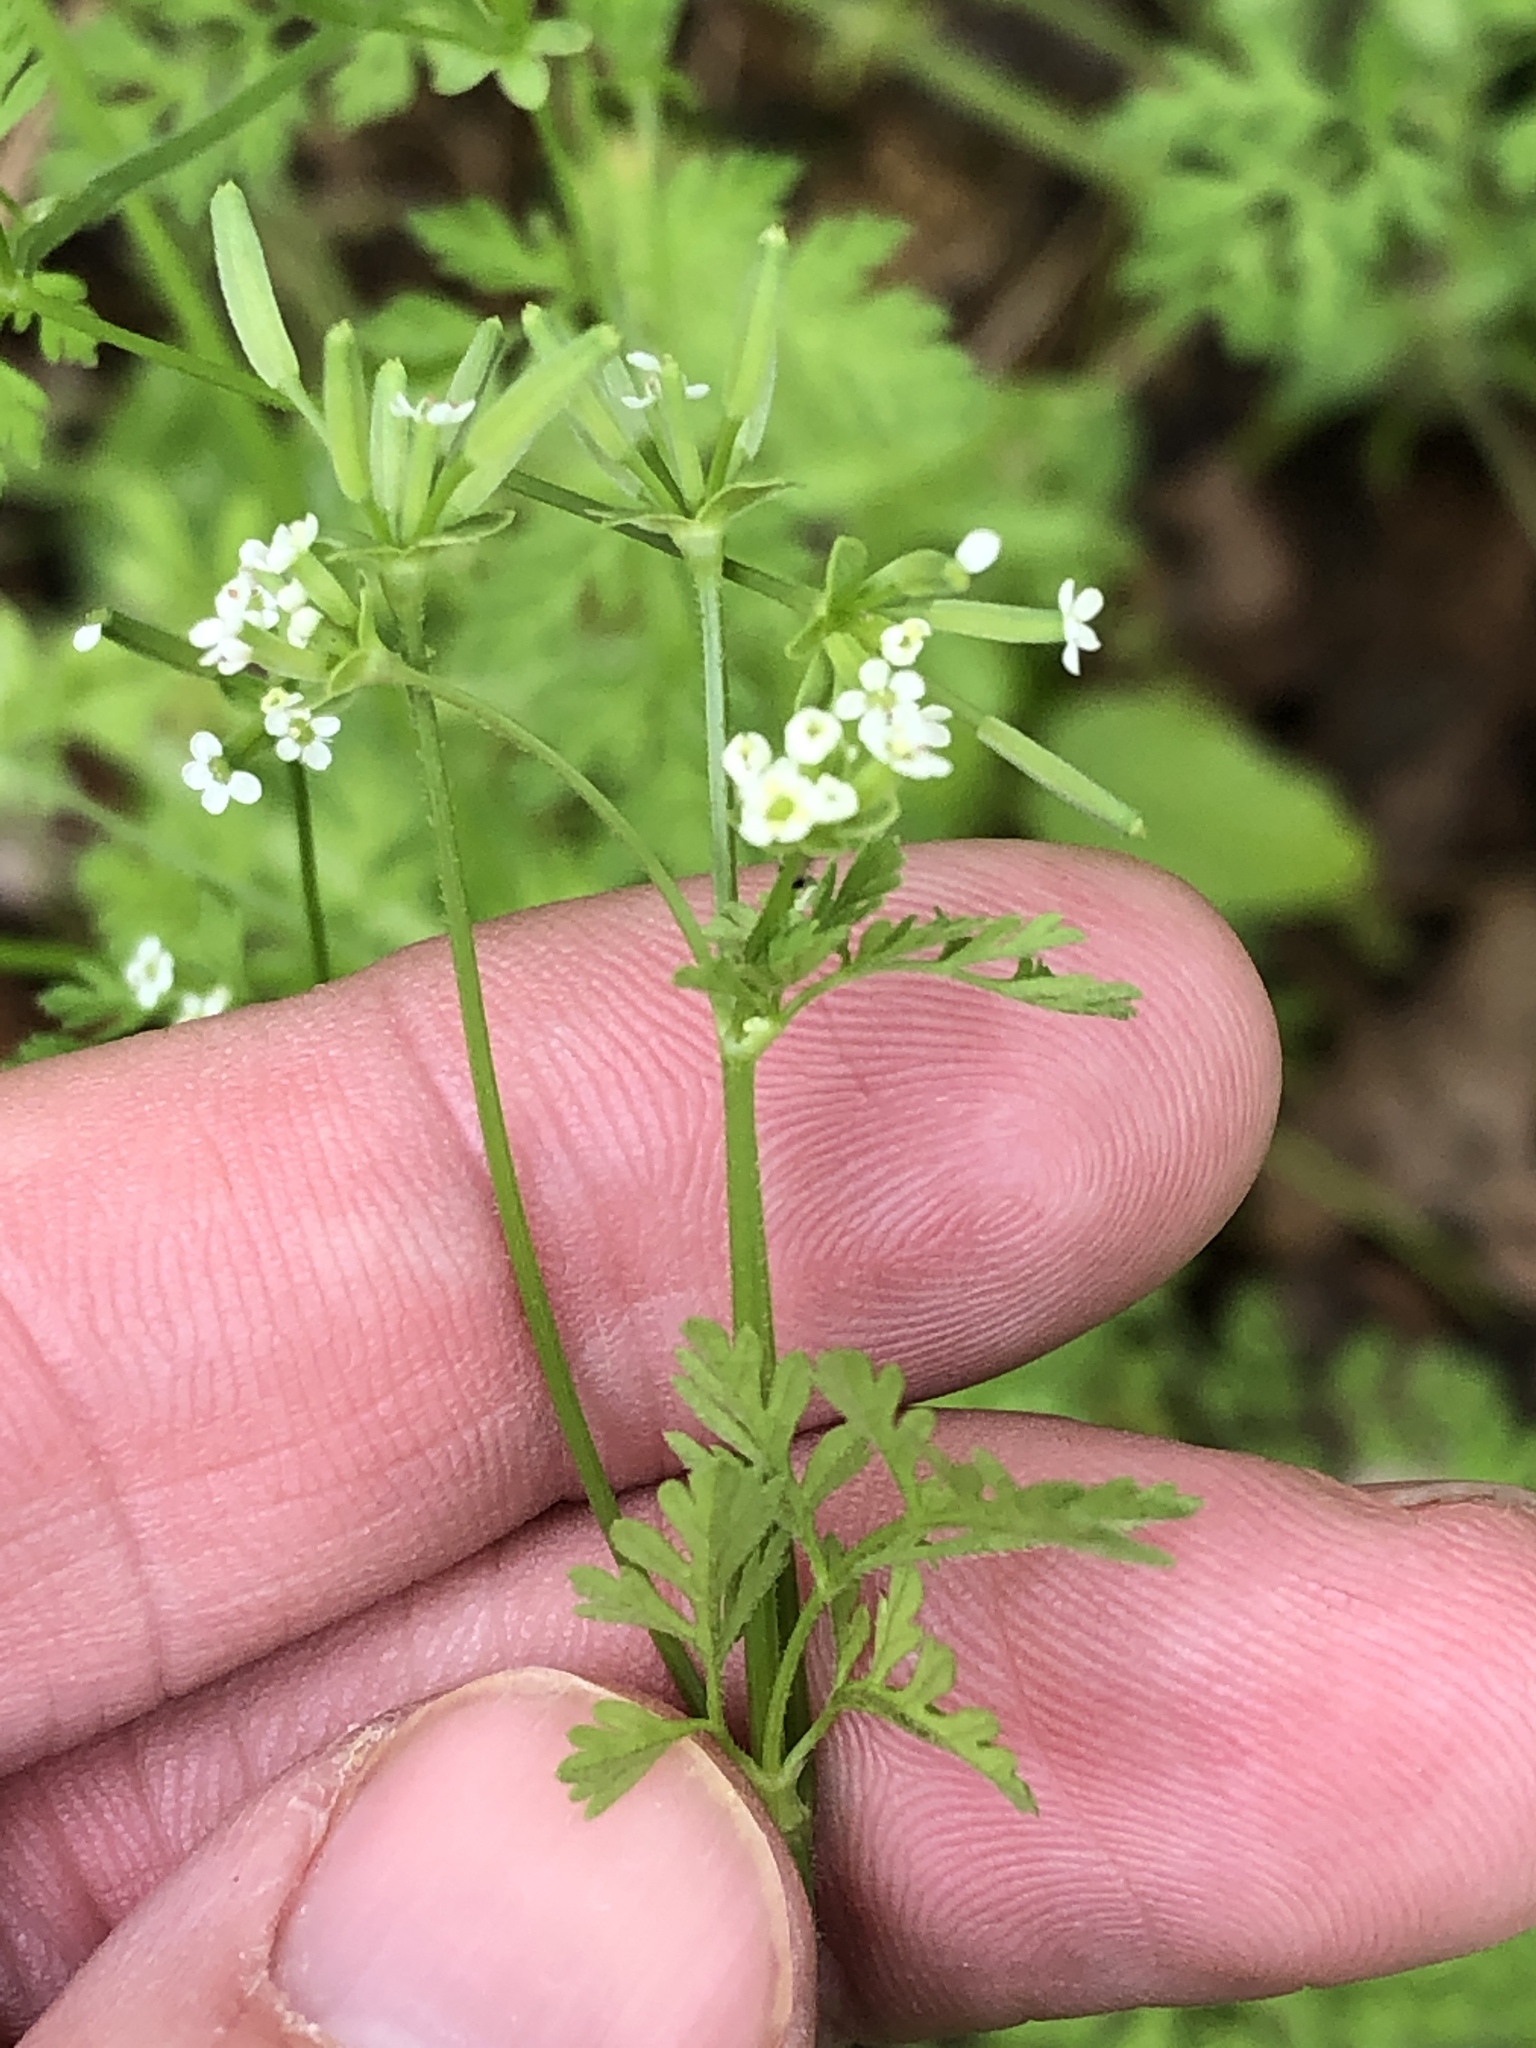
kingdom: Plantae
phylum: Tracheophyta
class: Magnoliopsida
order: Apiales
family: Apiaceae
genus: Chaerophyllum
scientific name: Chaerophyllum tainturieri
